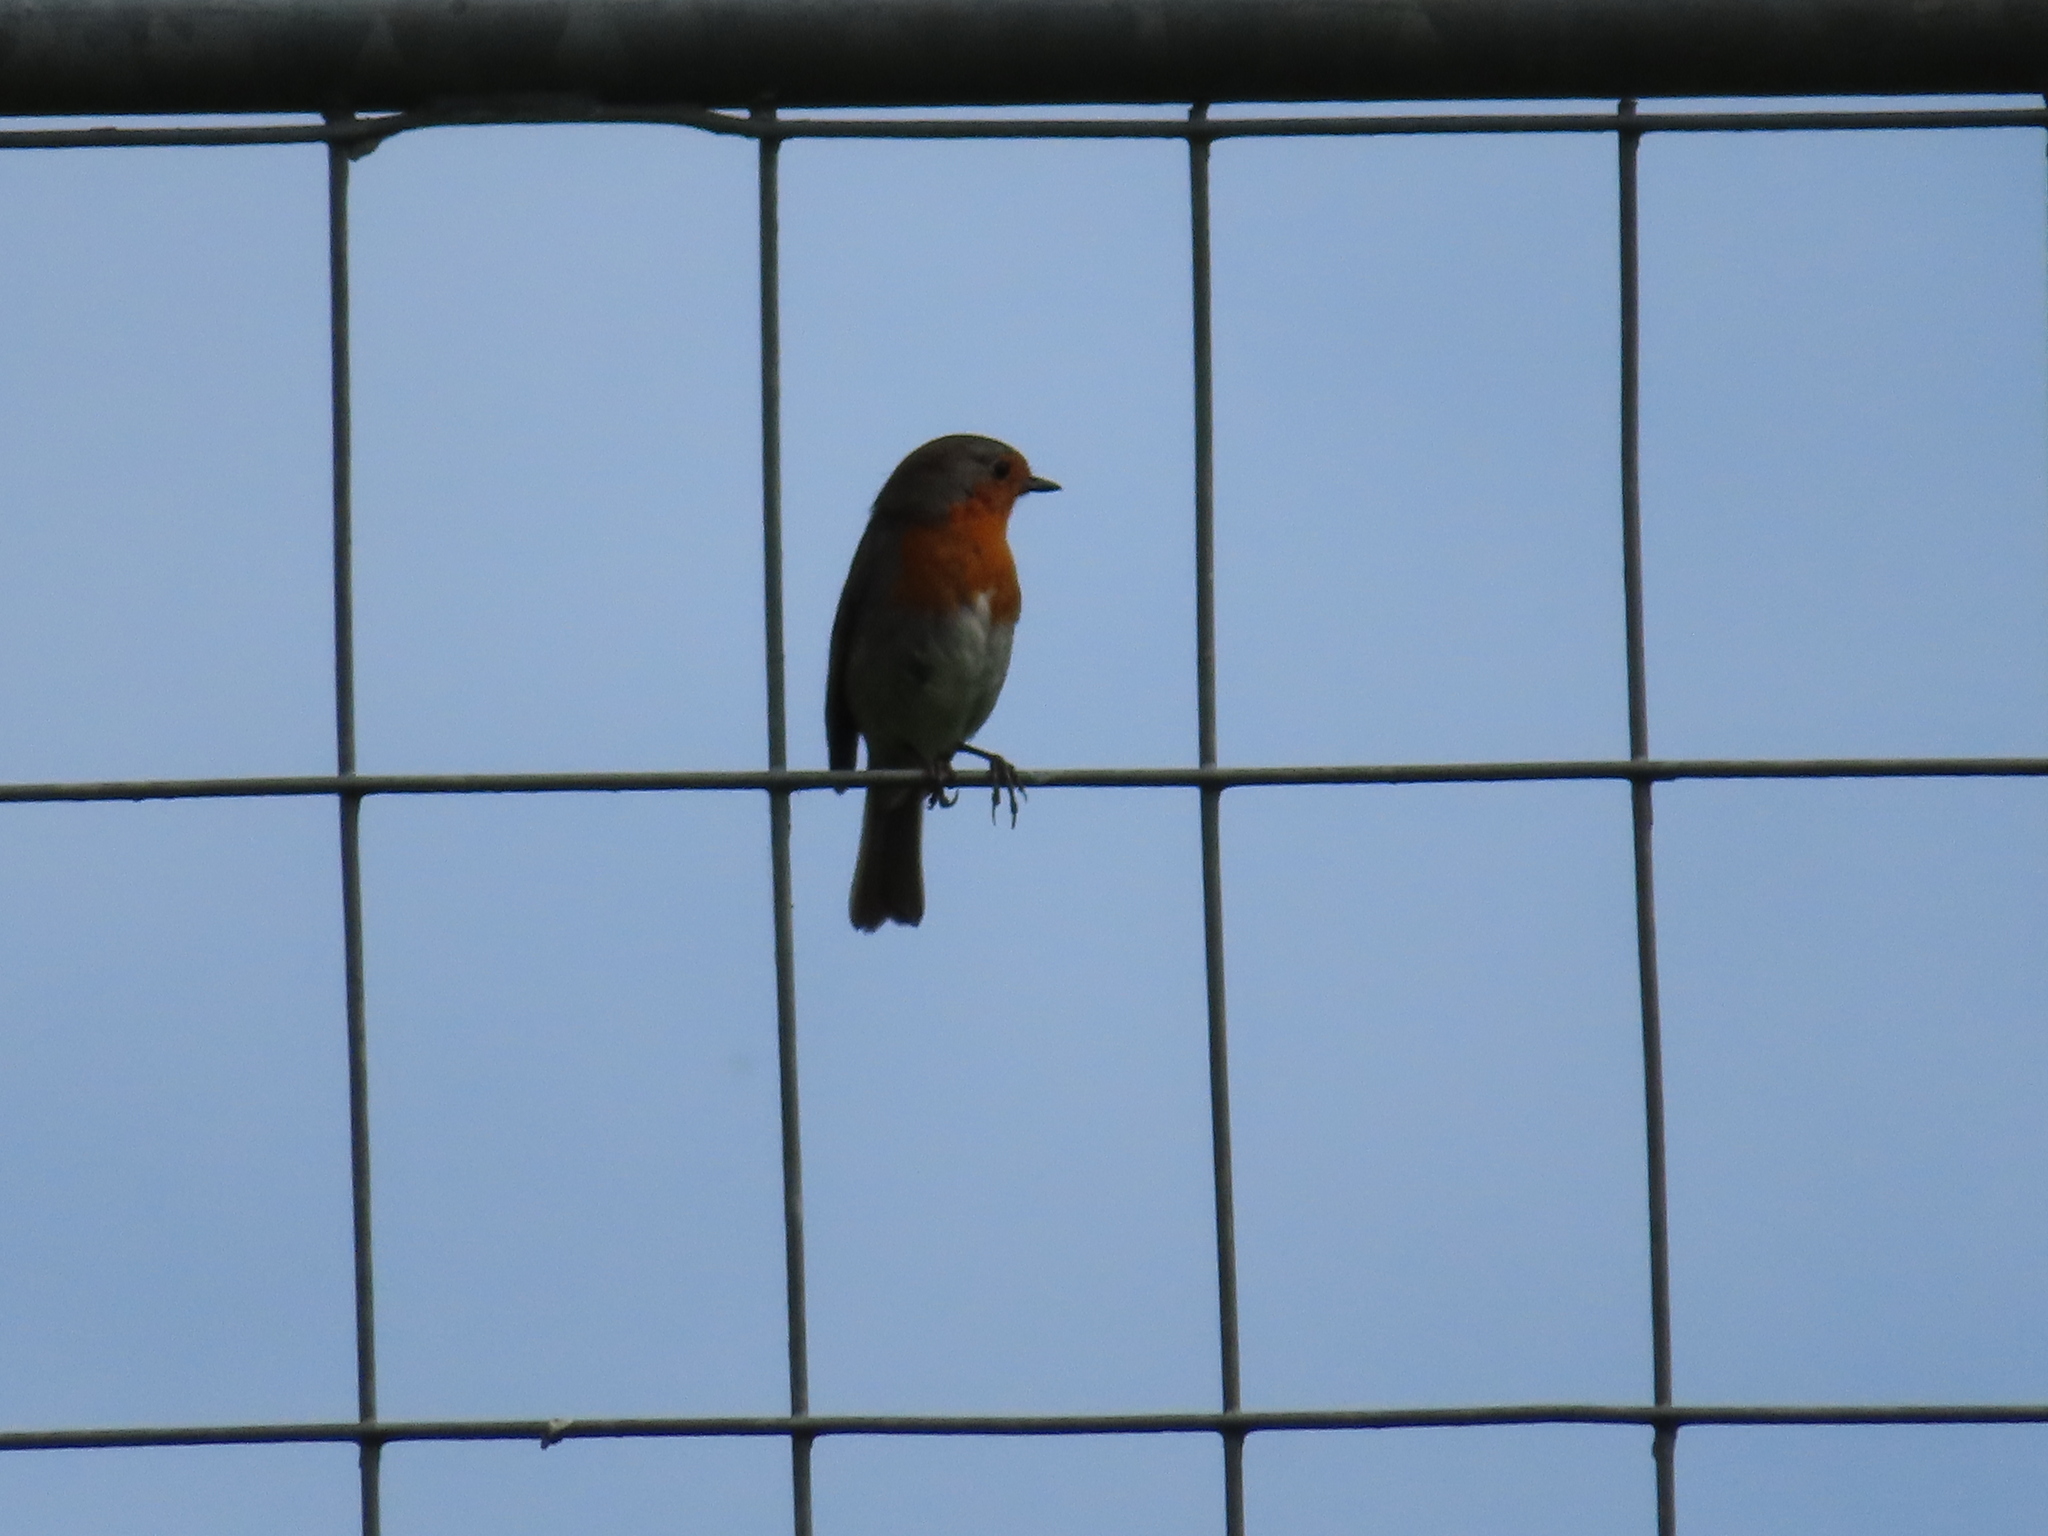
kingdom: Animalia
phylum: Chordata
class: Aves
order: Passeriformes
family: Muscicapidae
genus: Erithacus
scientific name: Erithacus rubecula
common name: European robin
